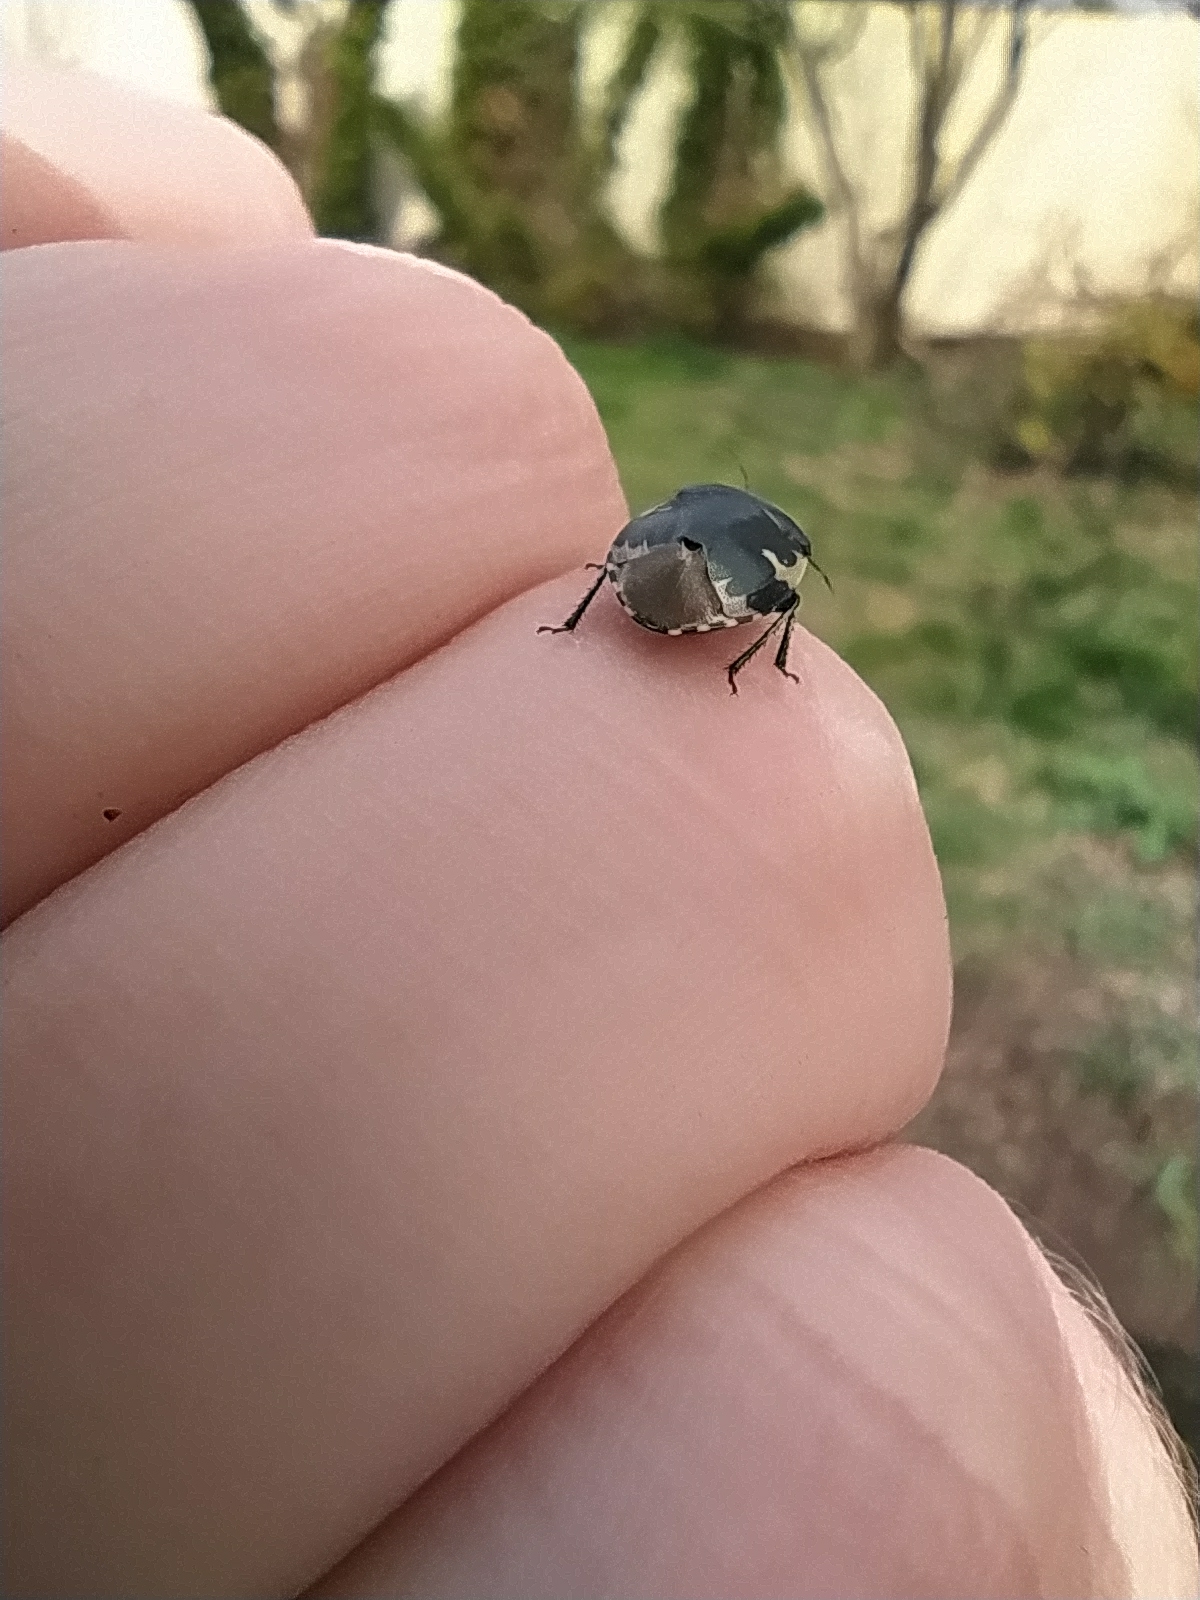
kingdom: Animalia
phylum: Arthropoda
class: Insecta
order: Hemiptera
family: Cydnidae
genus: Tritomegas
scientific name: Tritomegas bicolor
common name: Pied shieldbug
